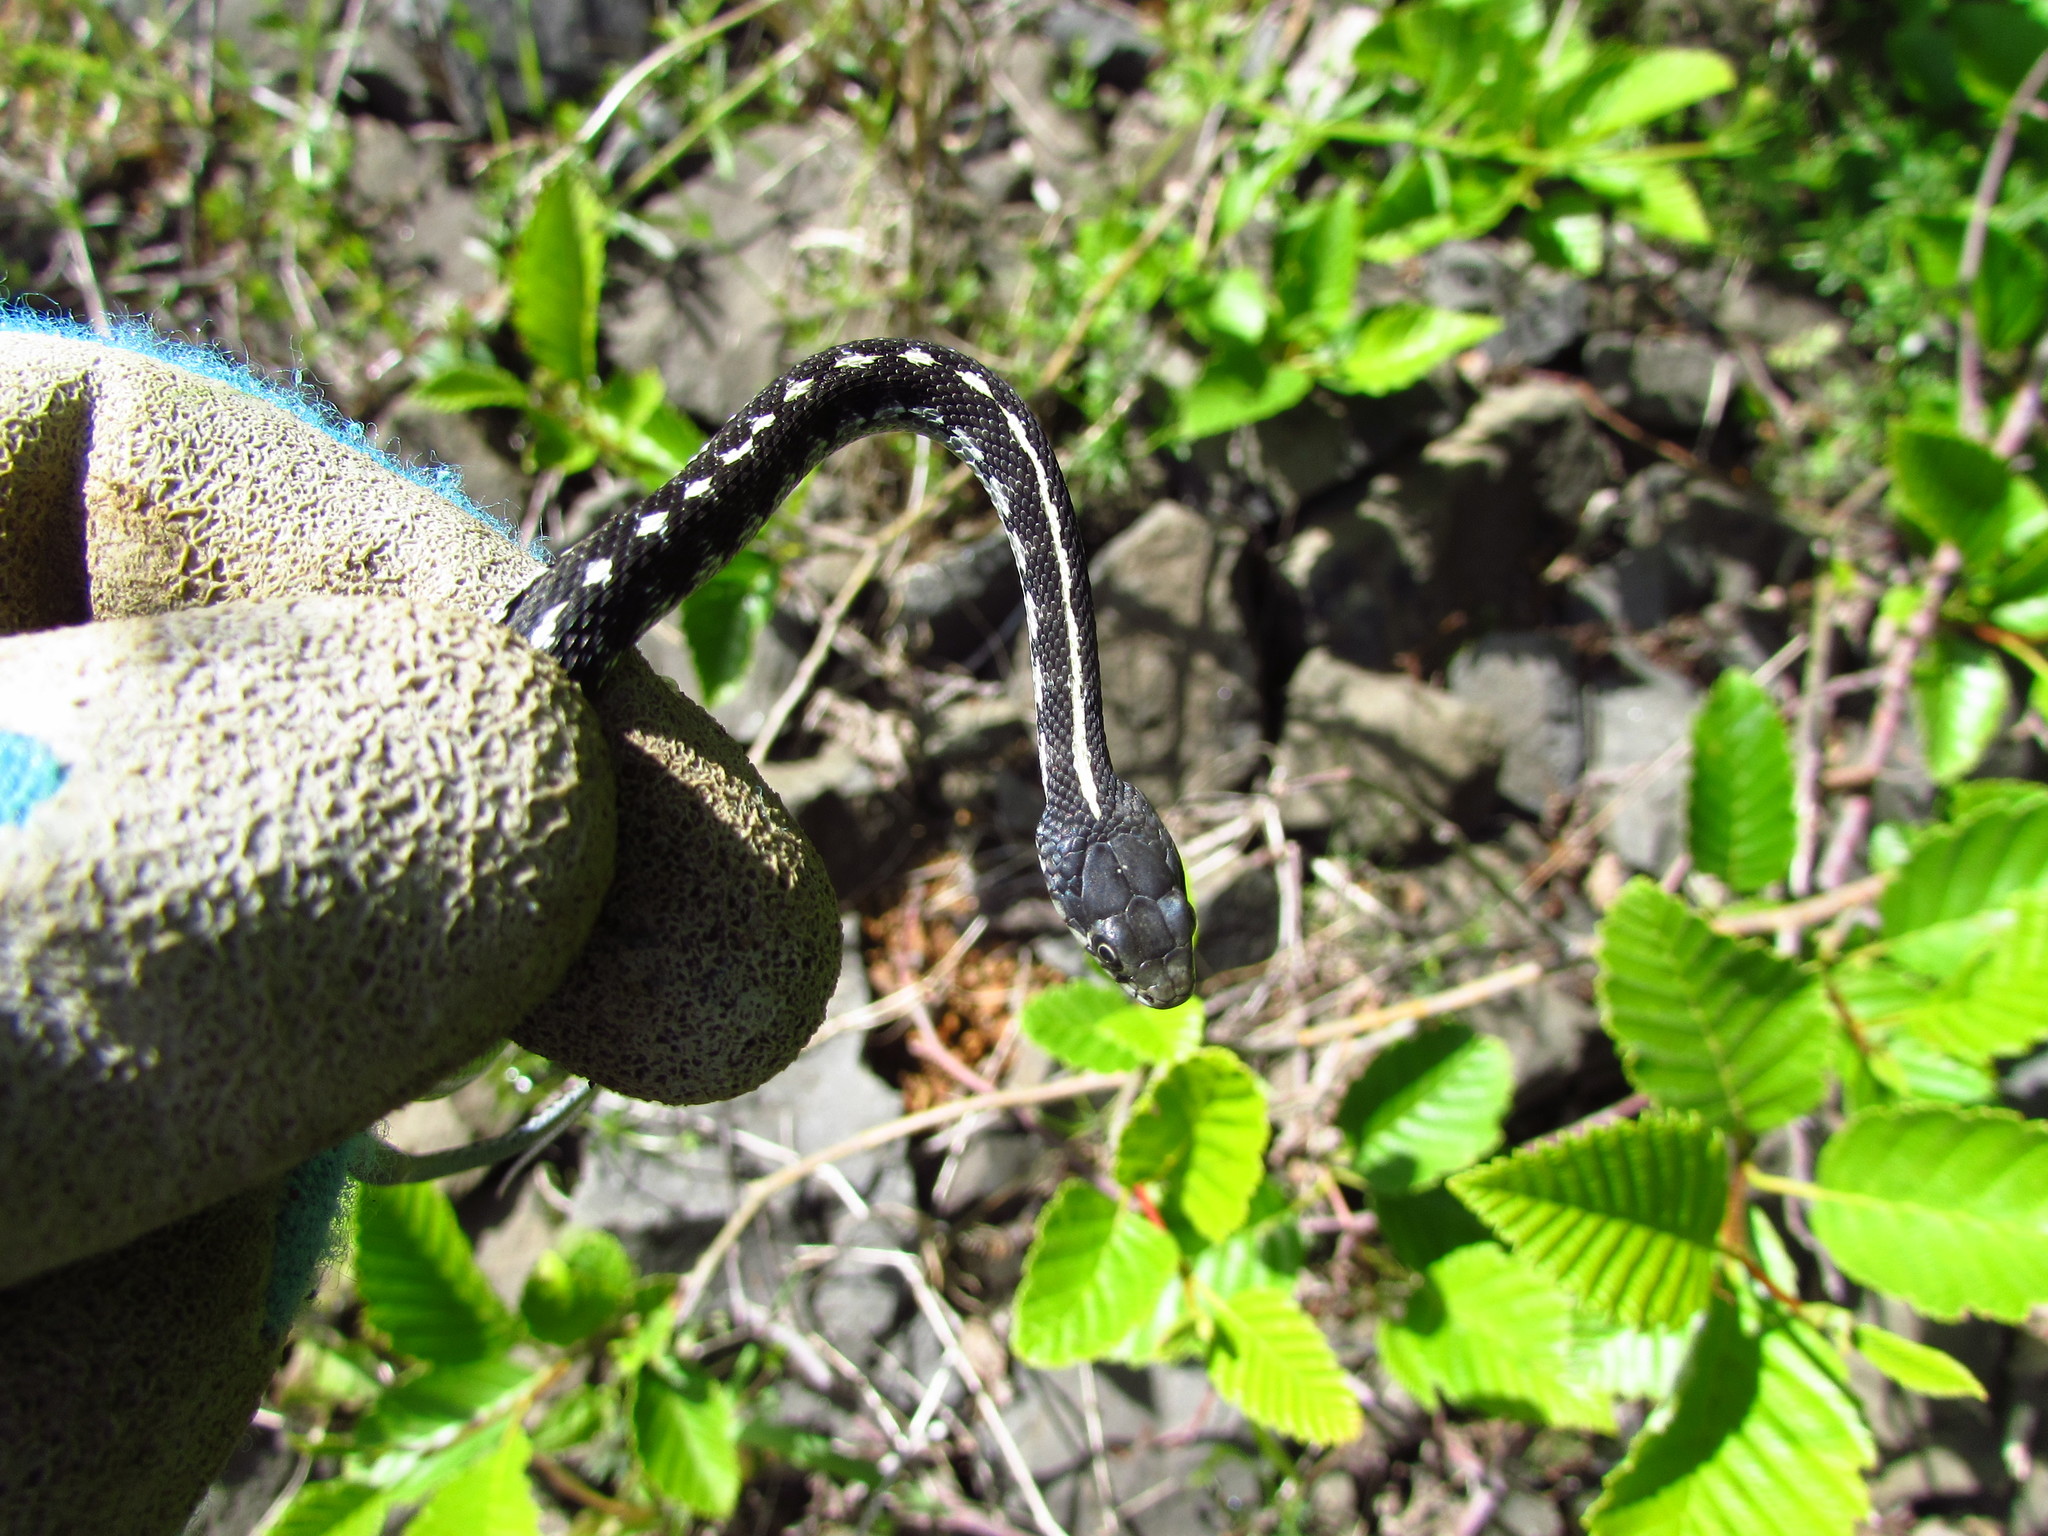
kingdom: Animalia
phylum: Chordata
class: Squamata
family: Colubridae
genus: Thamnophis
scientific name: Thamnophis elegans
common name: Western terrestrial garter snake
